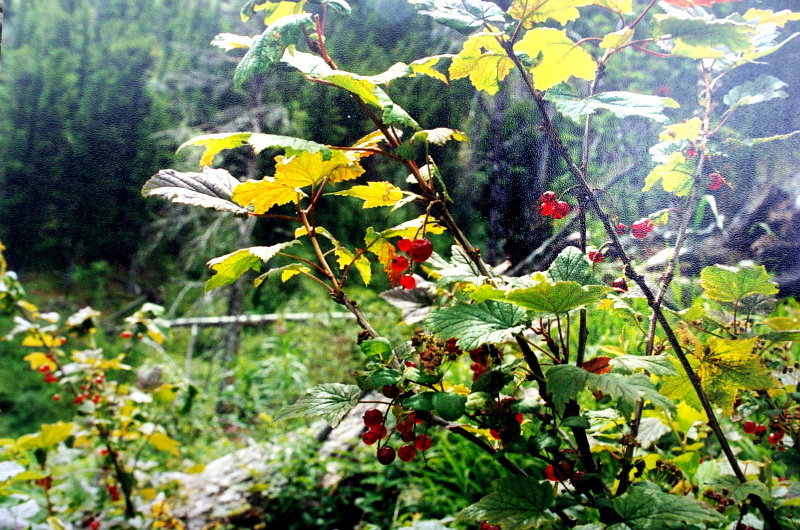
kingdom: Plantae
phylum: Tracheophyta
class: Magnoliopsida
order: Saxifragales
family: Grossulariaceae
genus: Ribes
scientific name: Ribes
